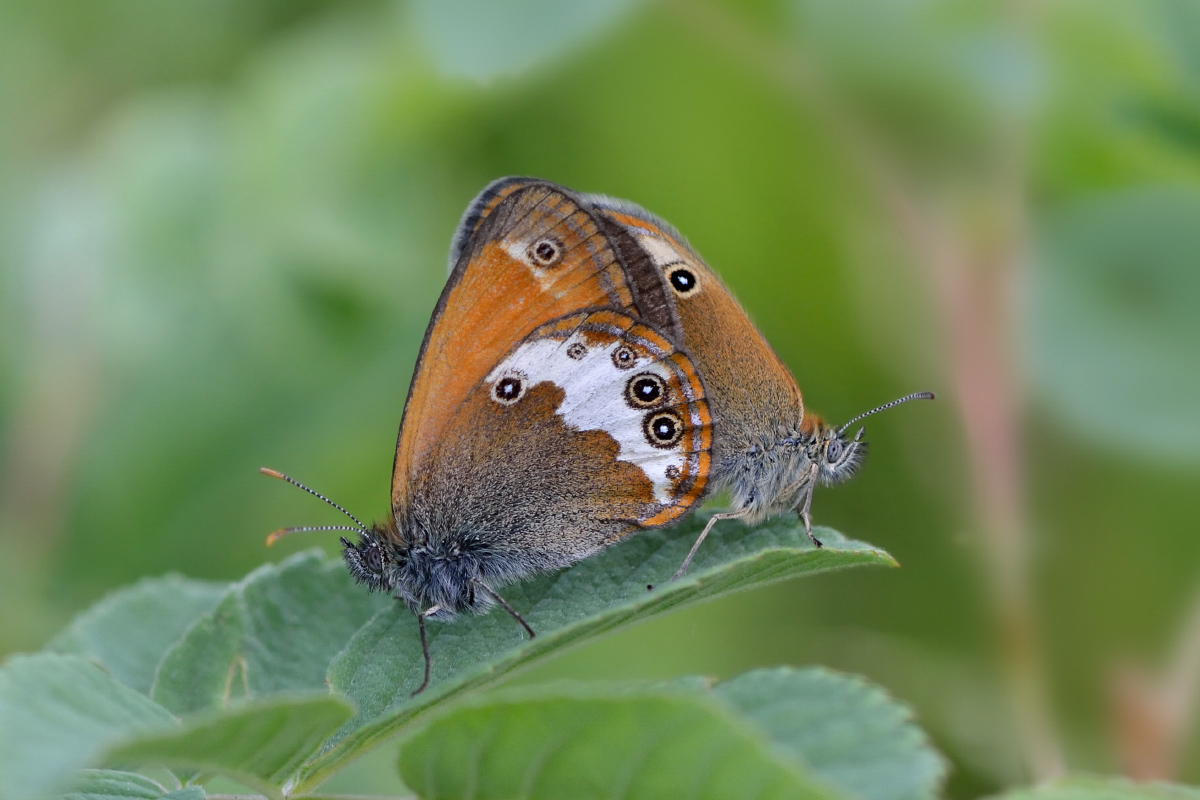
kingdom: Animalia
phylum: Arthropoda
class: Insecta
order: Lepidoptera
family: Nymphalidae
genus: Coenonympha
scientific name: Coenonympha arcania
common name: Pearly heath
